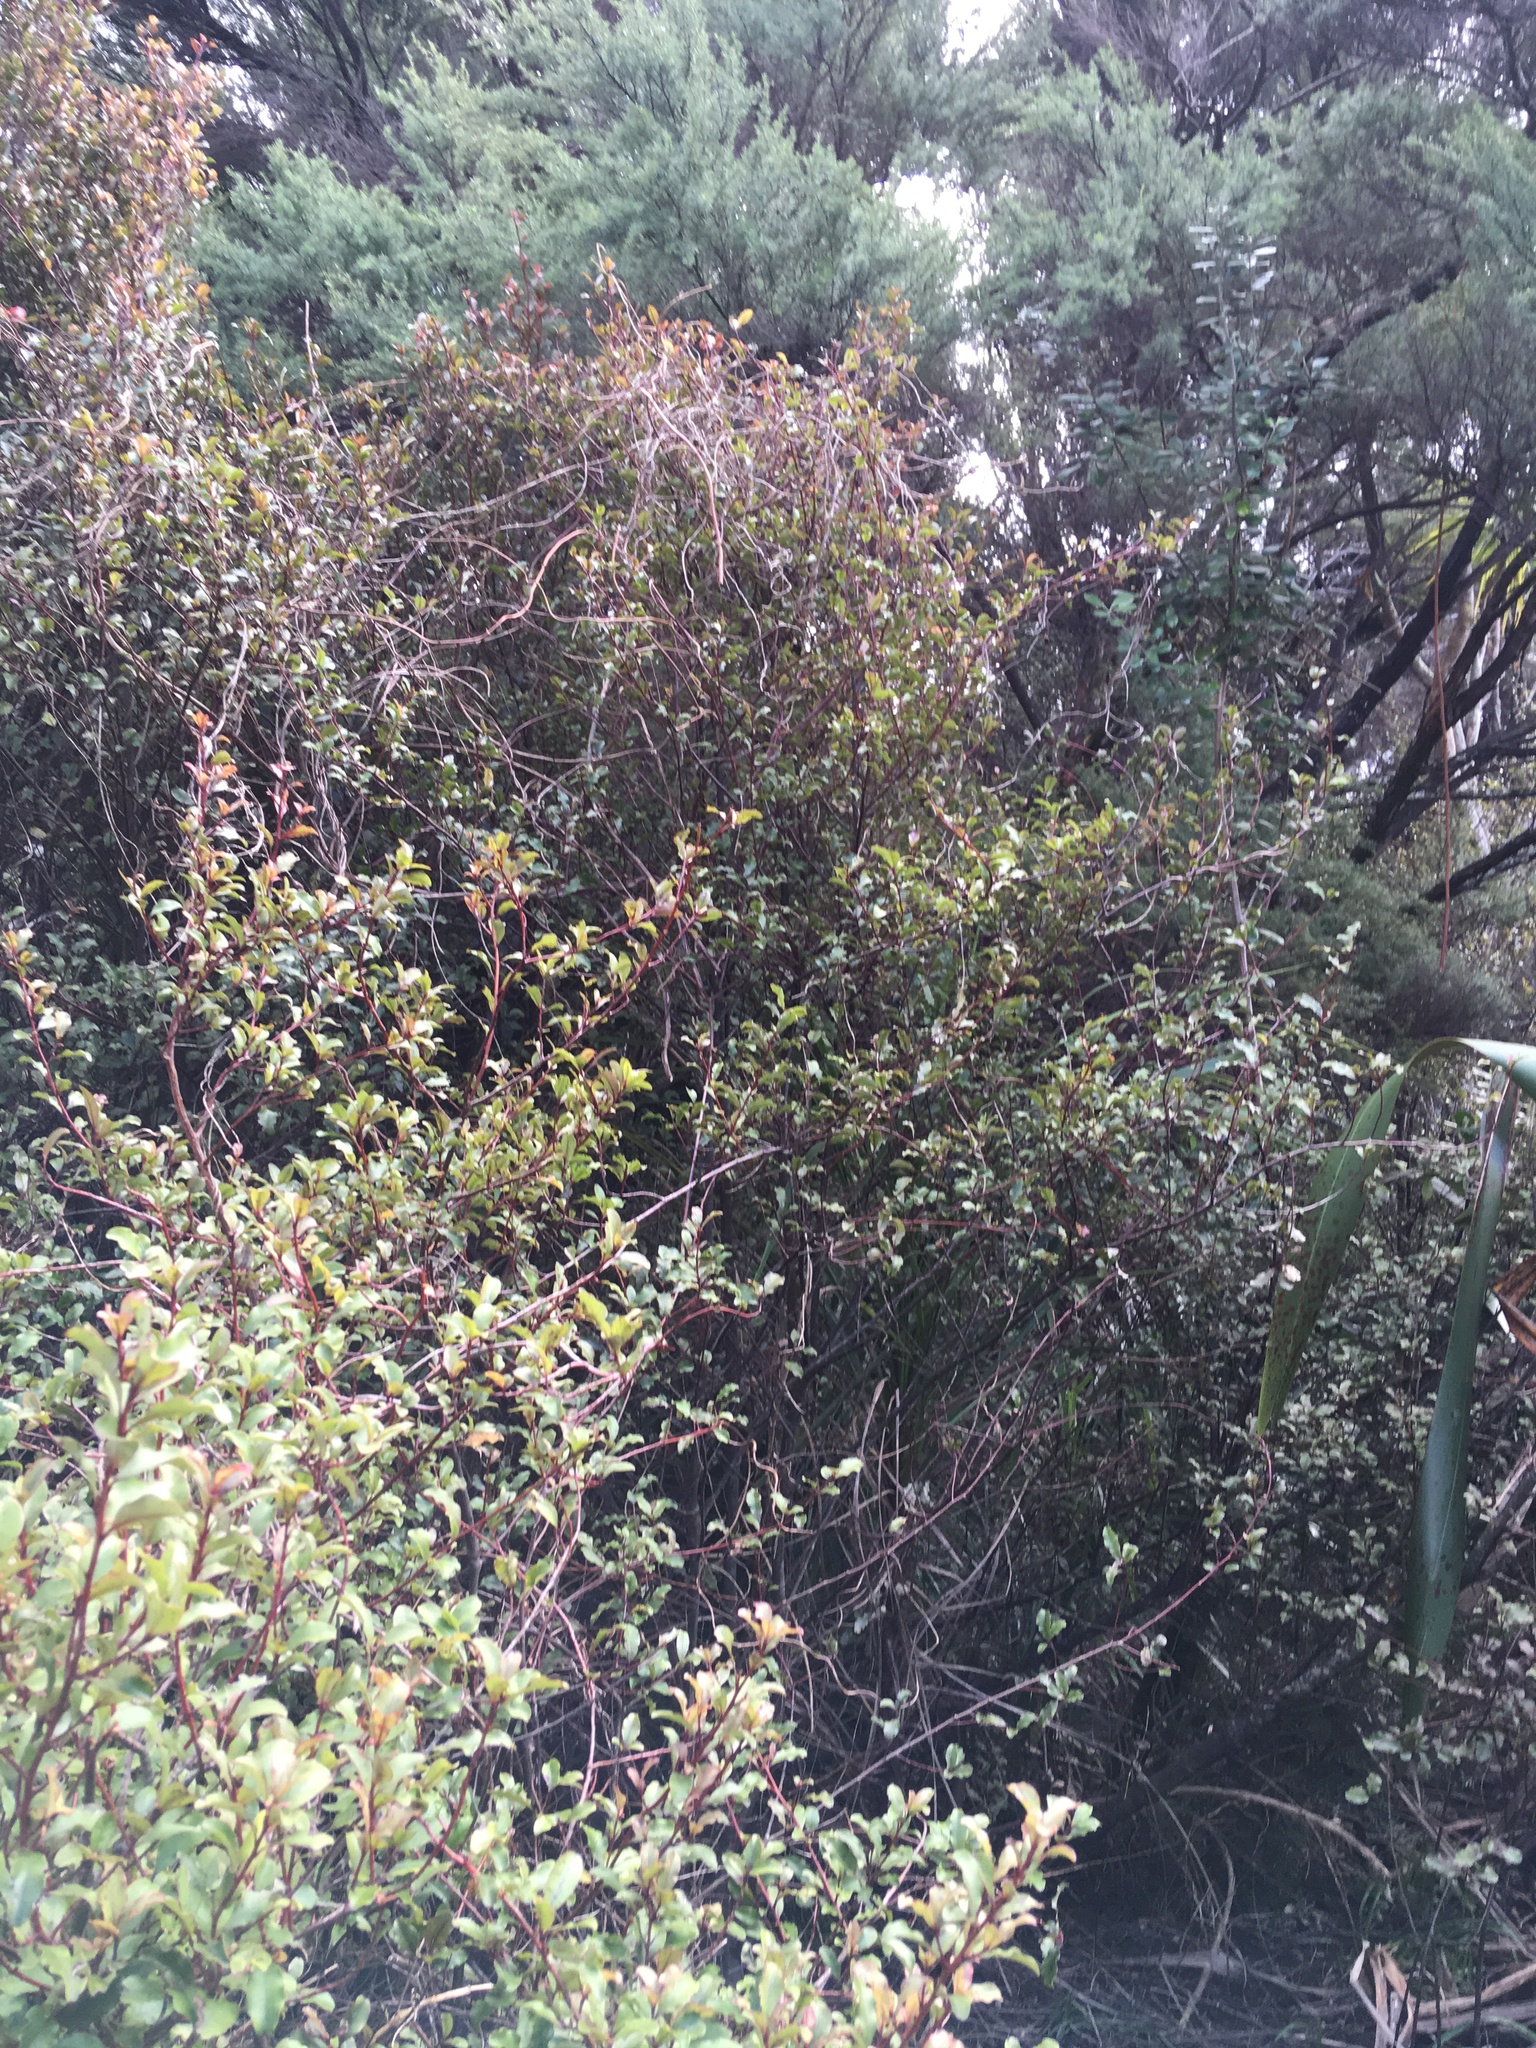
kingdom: Plantae
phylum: Tracheophyta
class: Magnoliopsida
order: Ericales
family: Primulaceae
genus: Myrsine
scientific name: Myrsine australis
